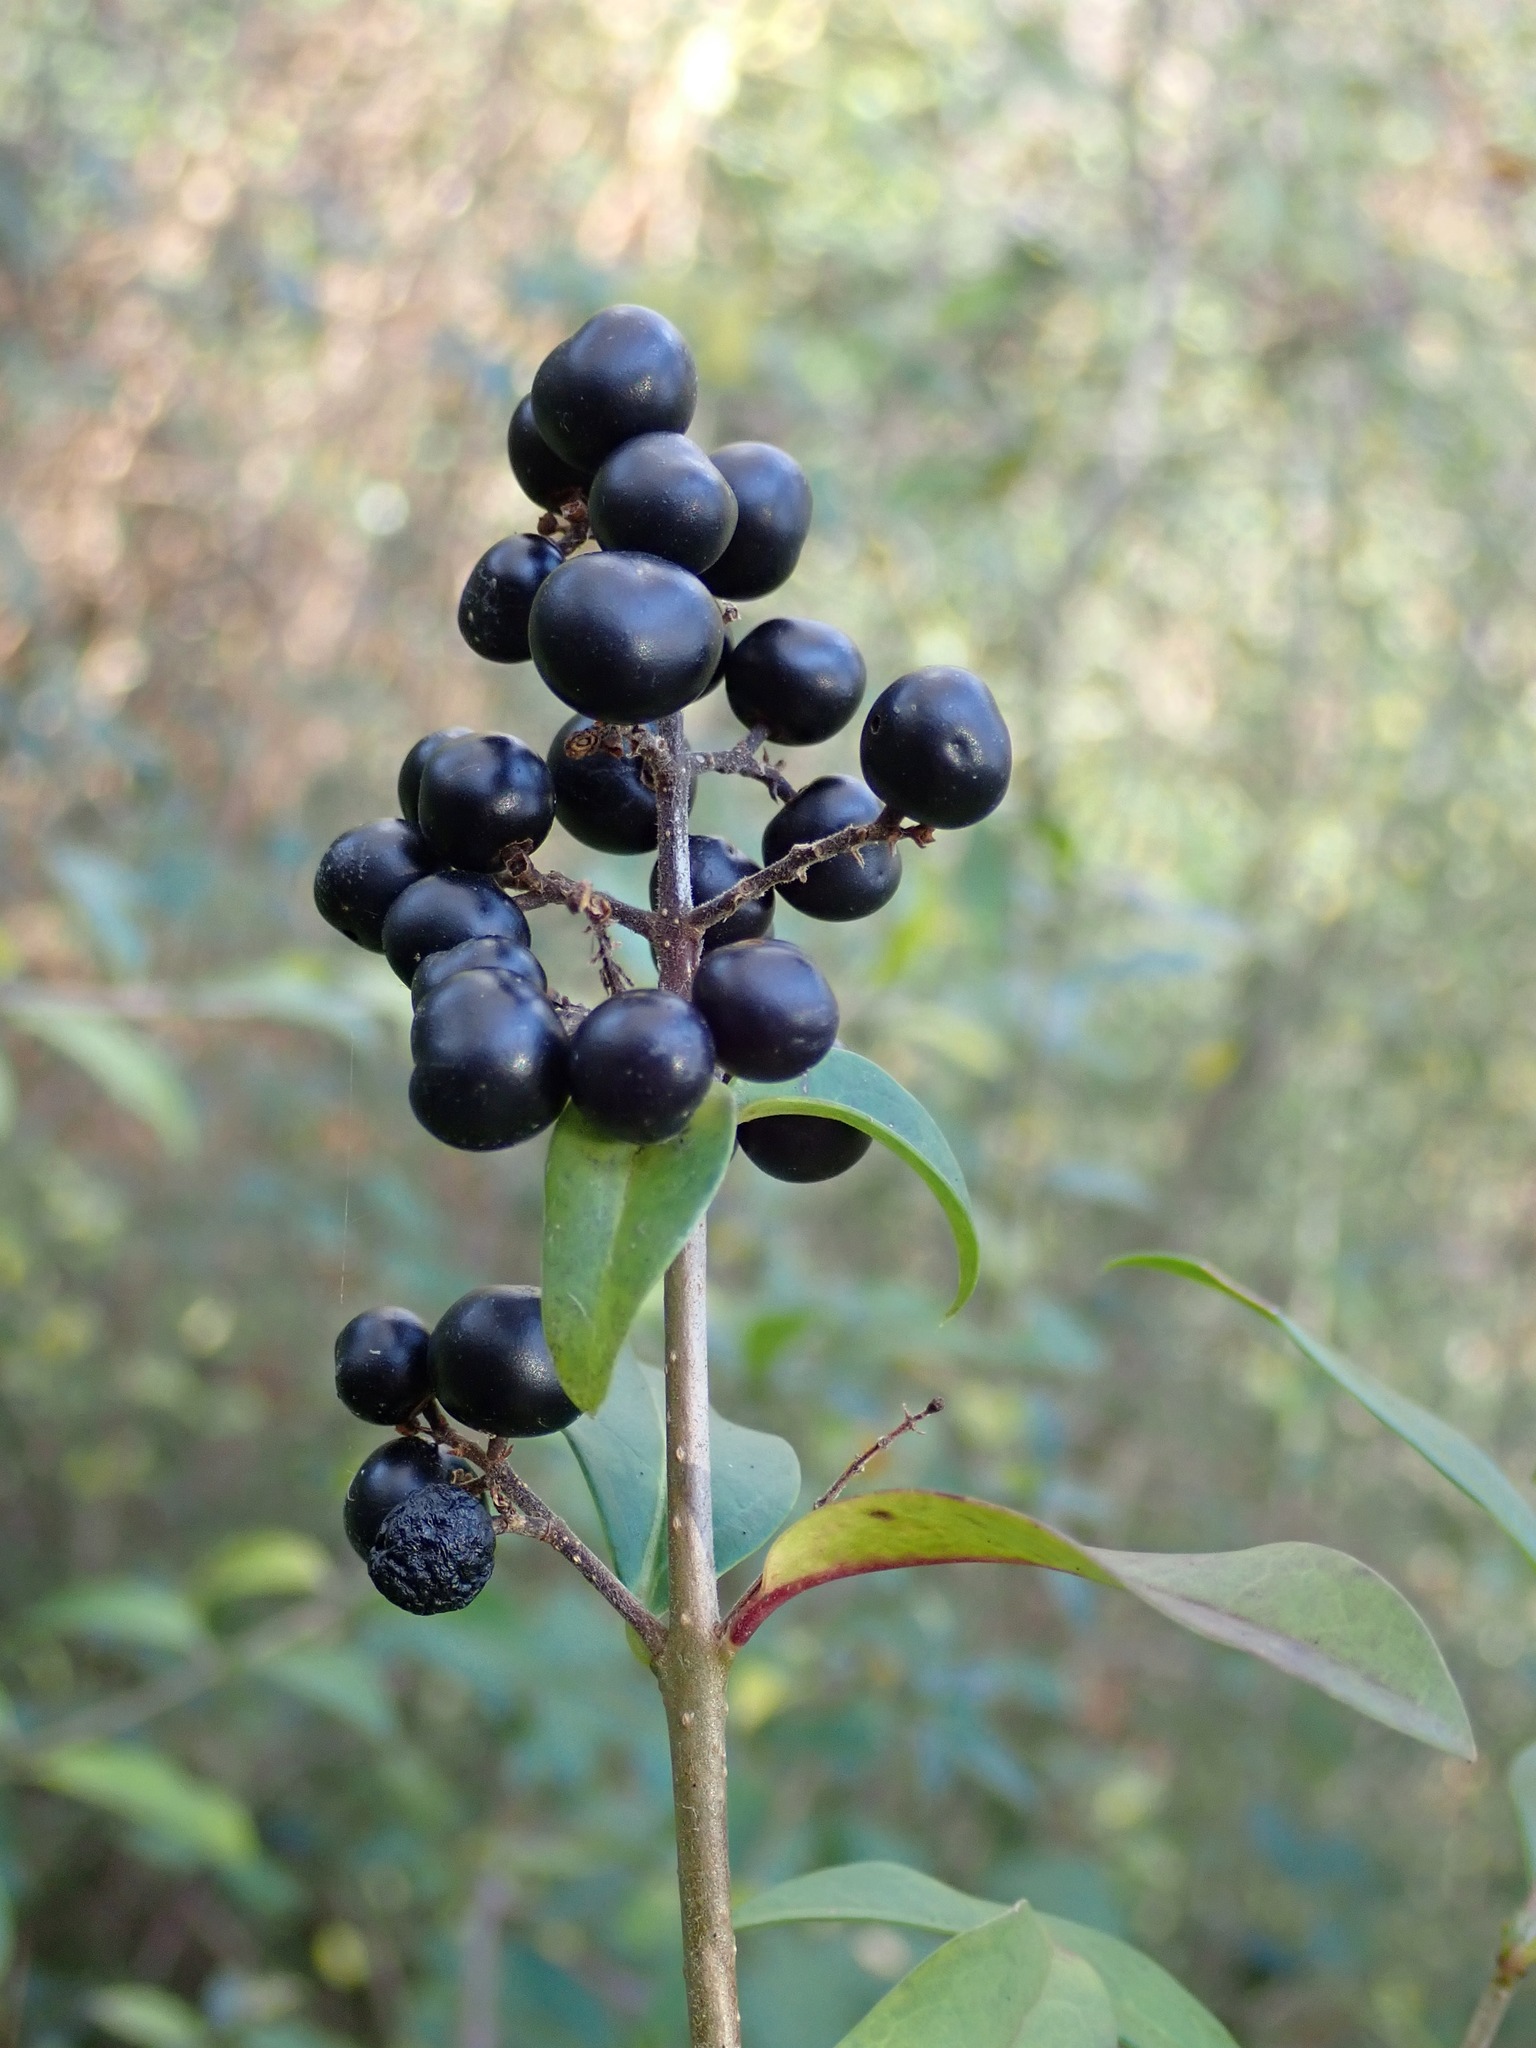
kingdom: Plantae
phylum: Tracheophyta
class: Magnoliopsida
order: Lamiales
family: Oleaceae
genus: Ligustrum
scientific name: Ligustrum vulgare
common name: Wild privet
